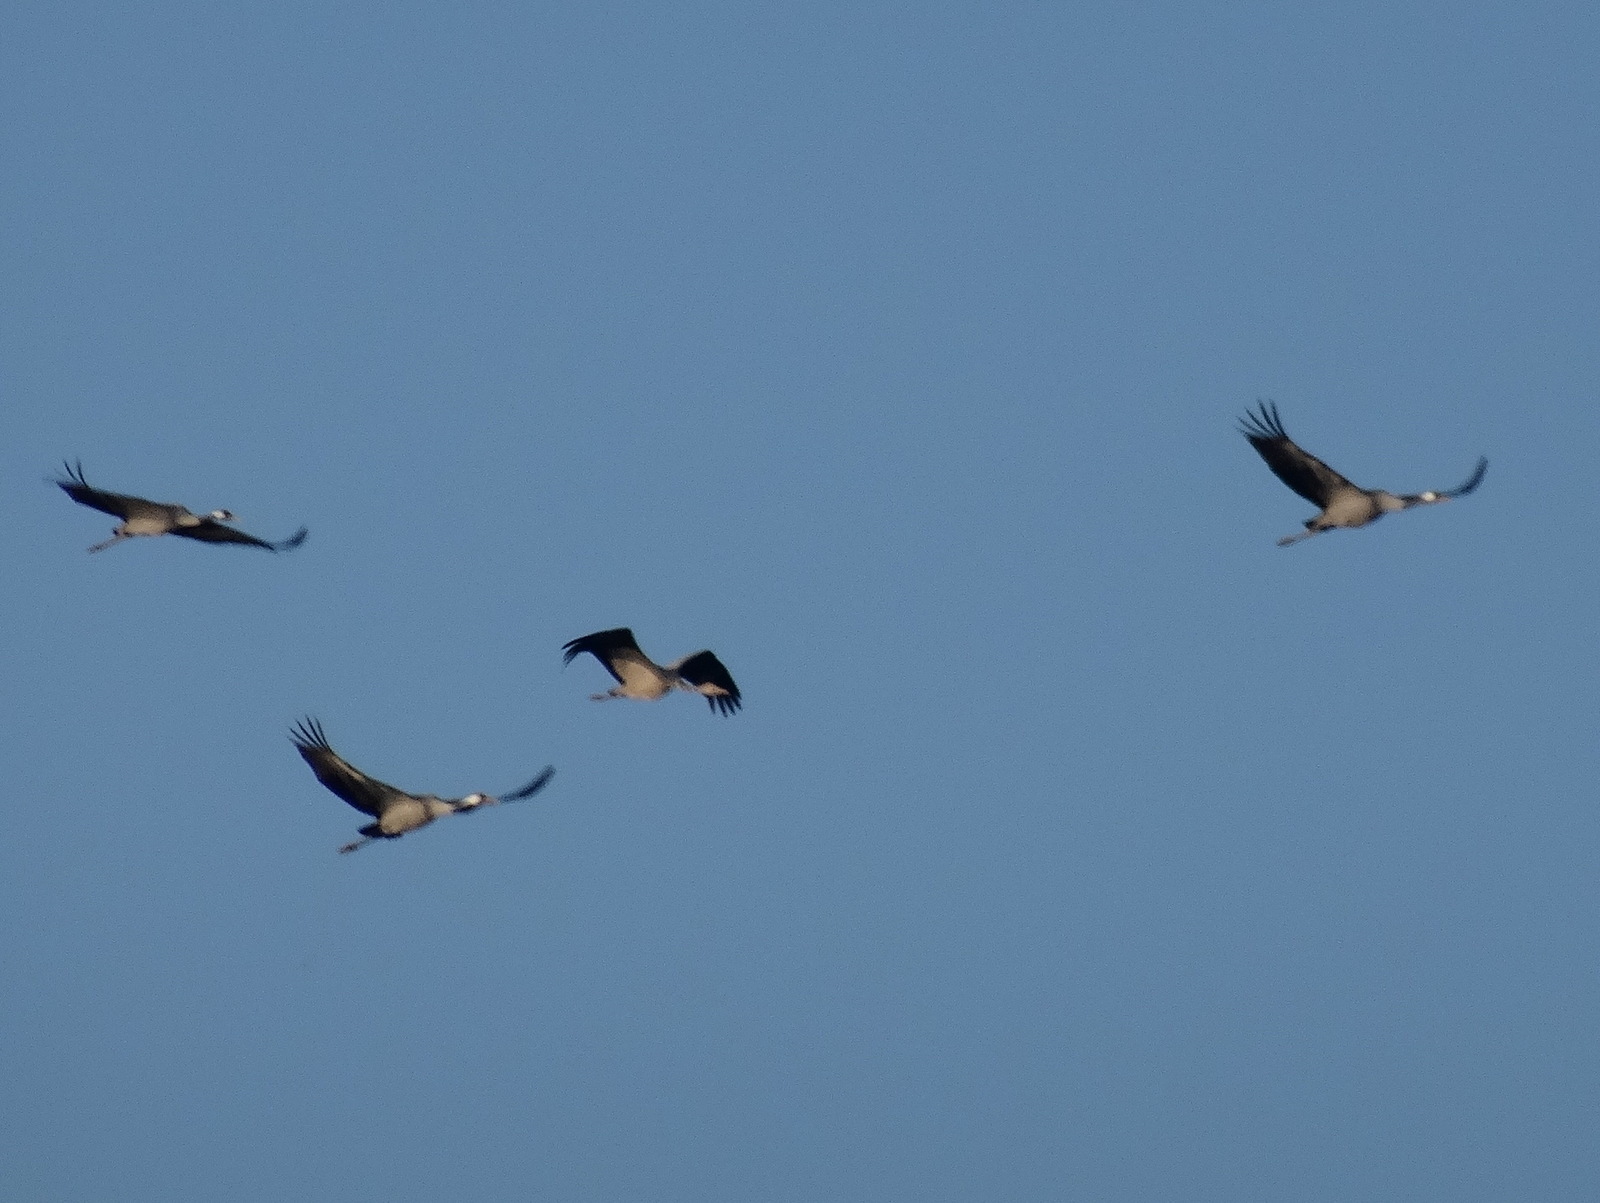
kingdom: Animalia
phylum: Chordata
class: Aves
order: Gruiformes
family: Gruidae
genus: Grus
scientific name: Grus grus
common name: Common crane
